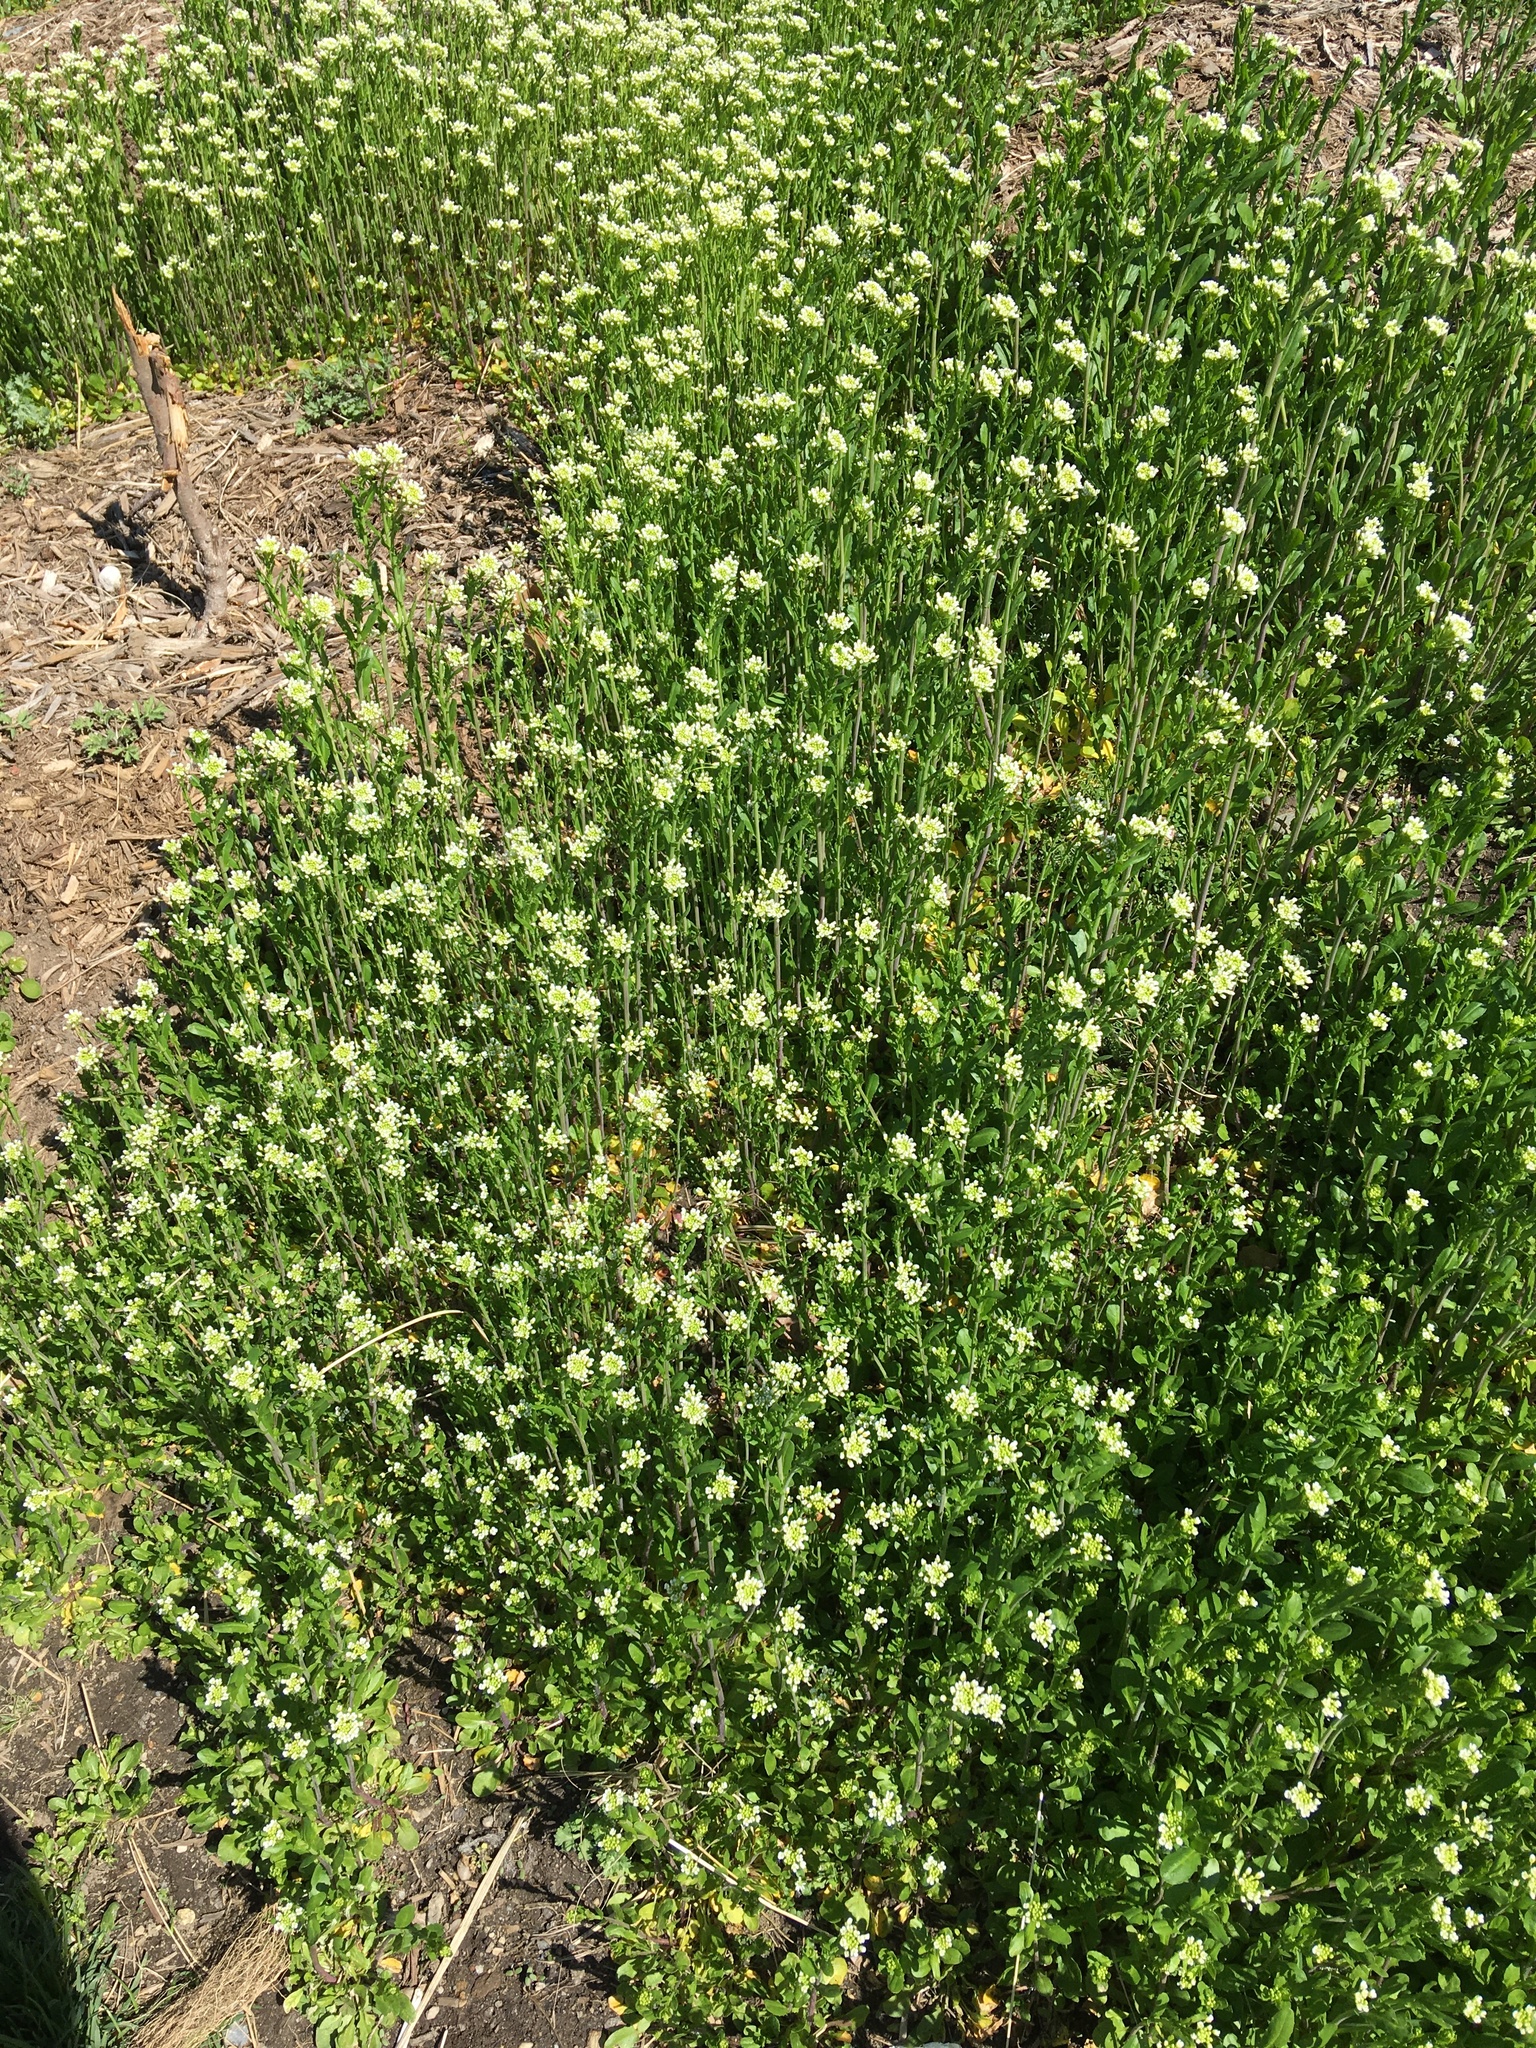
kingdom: Plantae
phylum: Tracheophyta
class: Magnoliopsida
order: Brassicales
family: Brassicaceae
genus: Mummenhoffia
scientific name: Mummenhoffia alliacea
